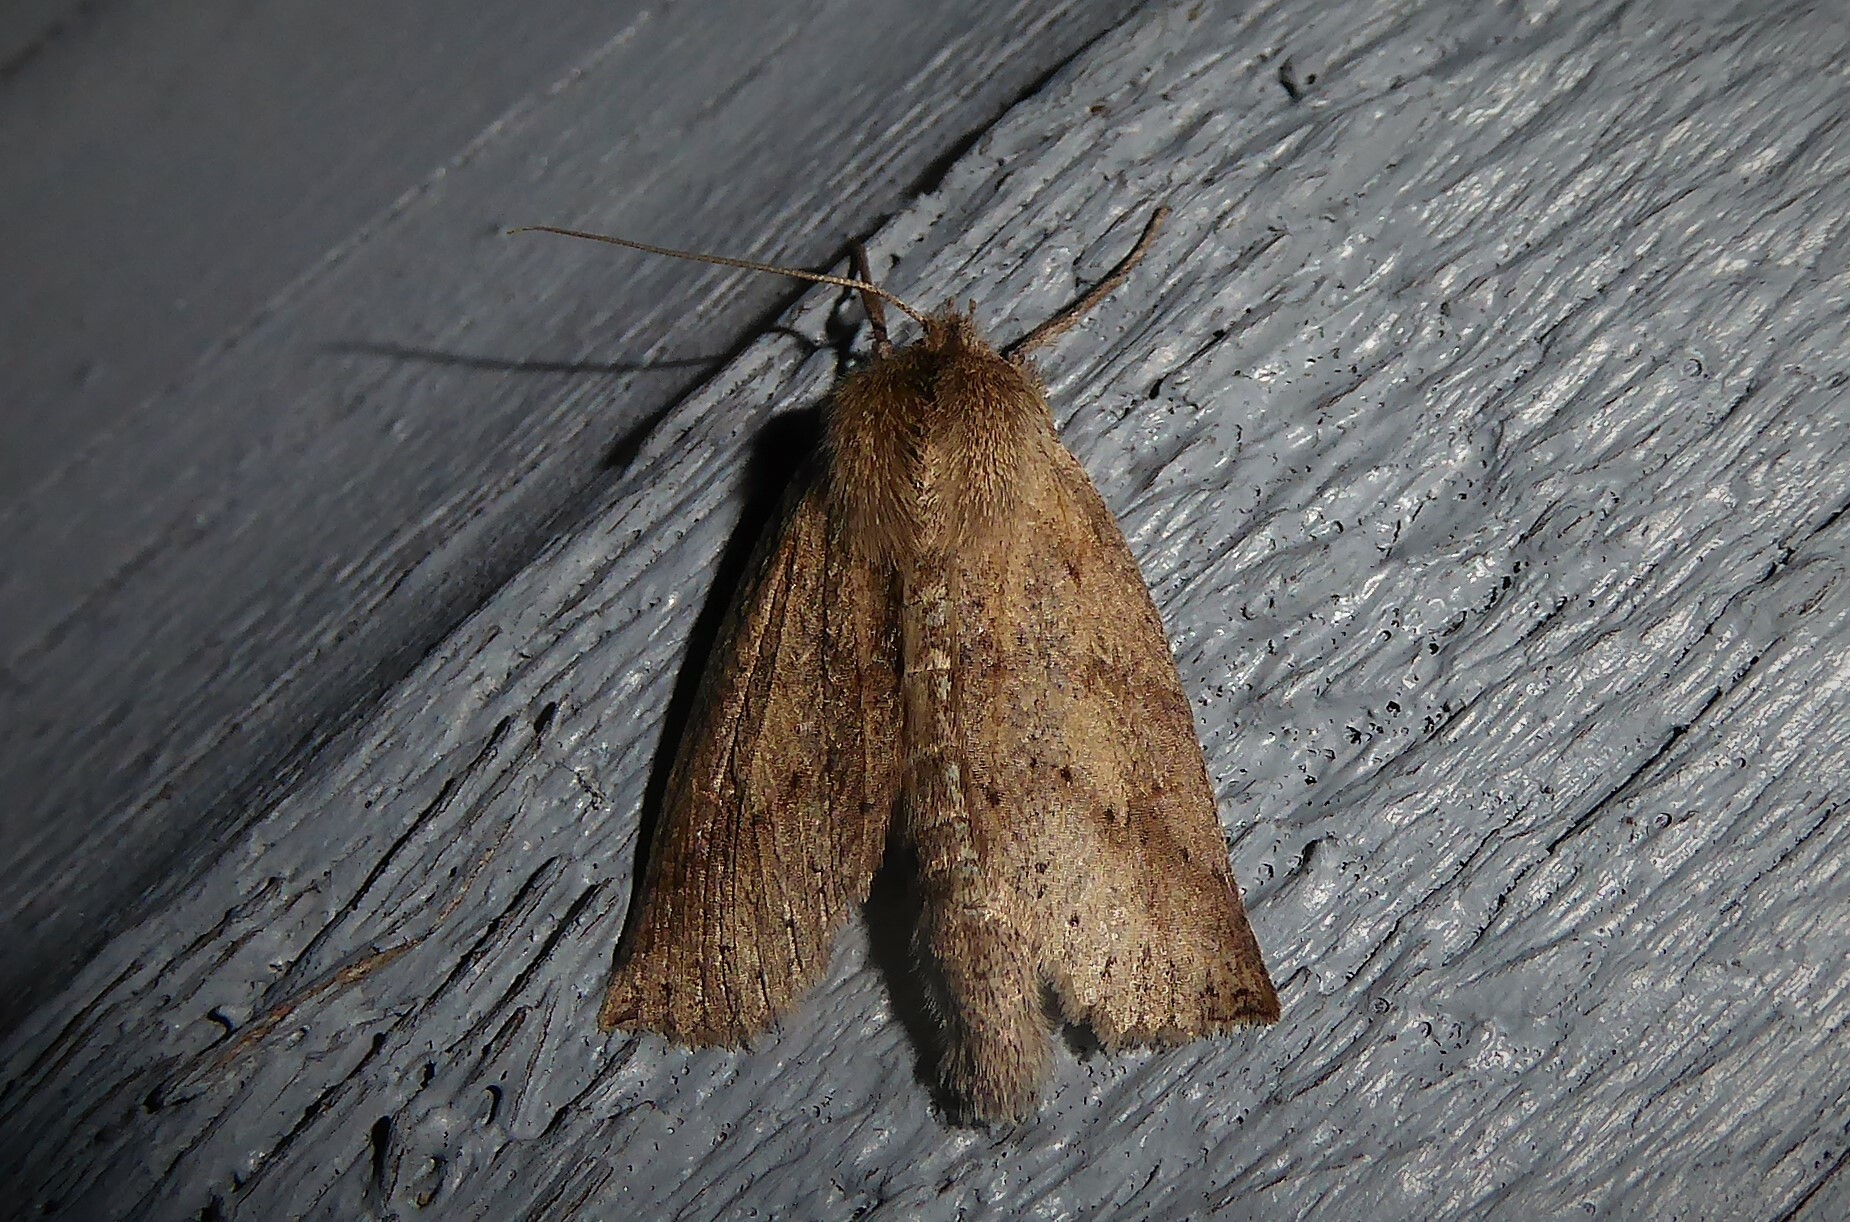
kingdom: Animalia
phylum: Arthropoda
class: Insecta
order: Lepidoptera
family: Geometridae
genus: Declana
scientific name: Declana leptomera
